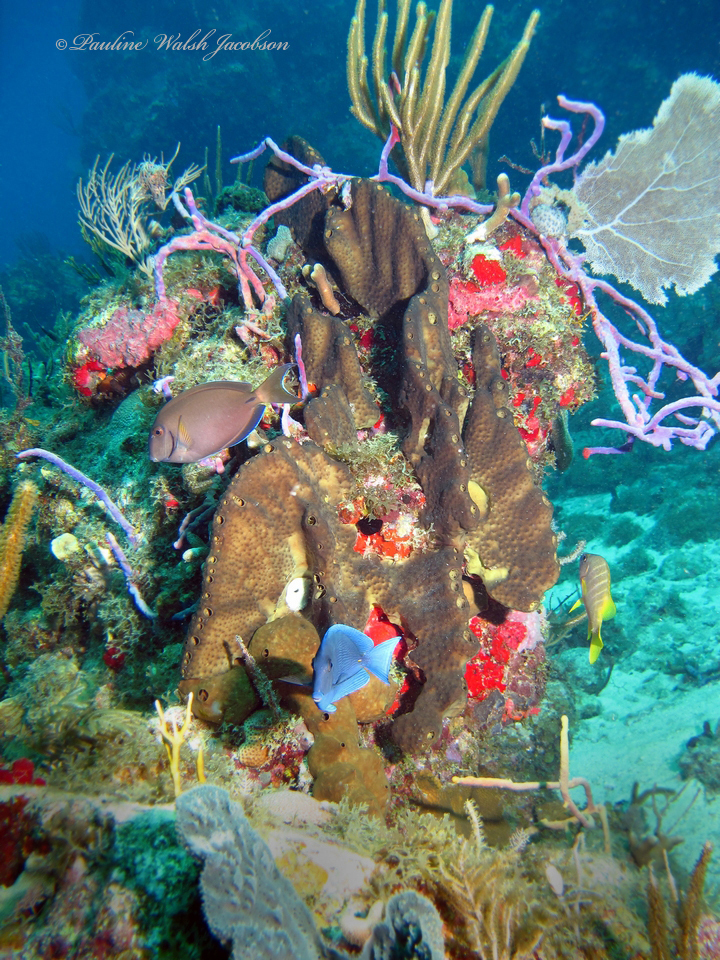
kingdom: Animalia
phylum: Chordata
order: Perciformes
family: Acanthuridae
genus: Acanthurus
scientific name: Acanthurus bahianus
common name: Ocean surgeon
